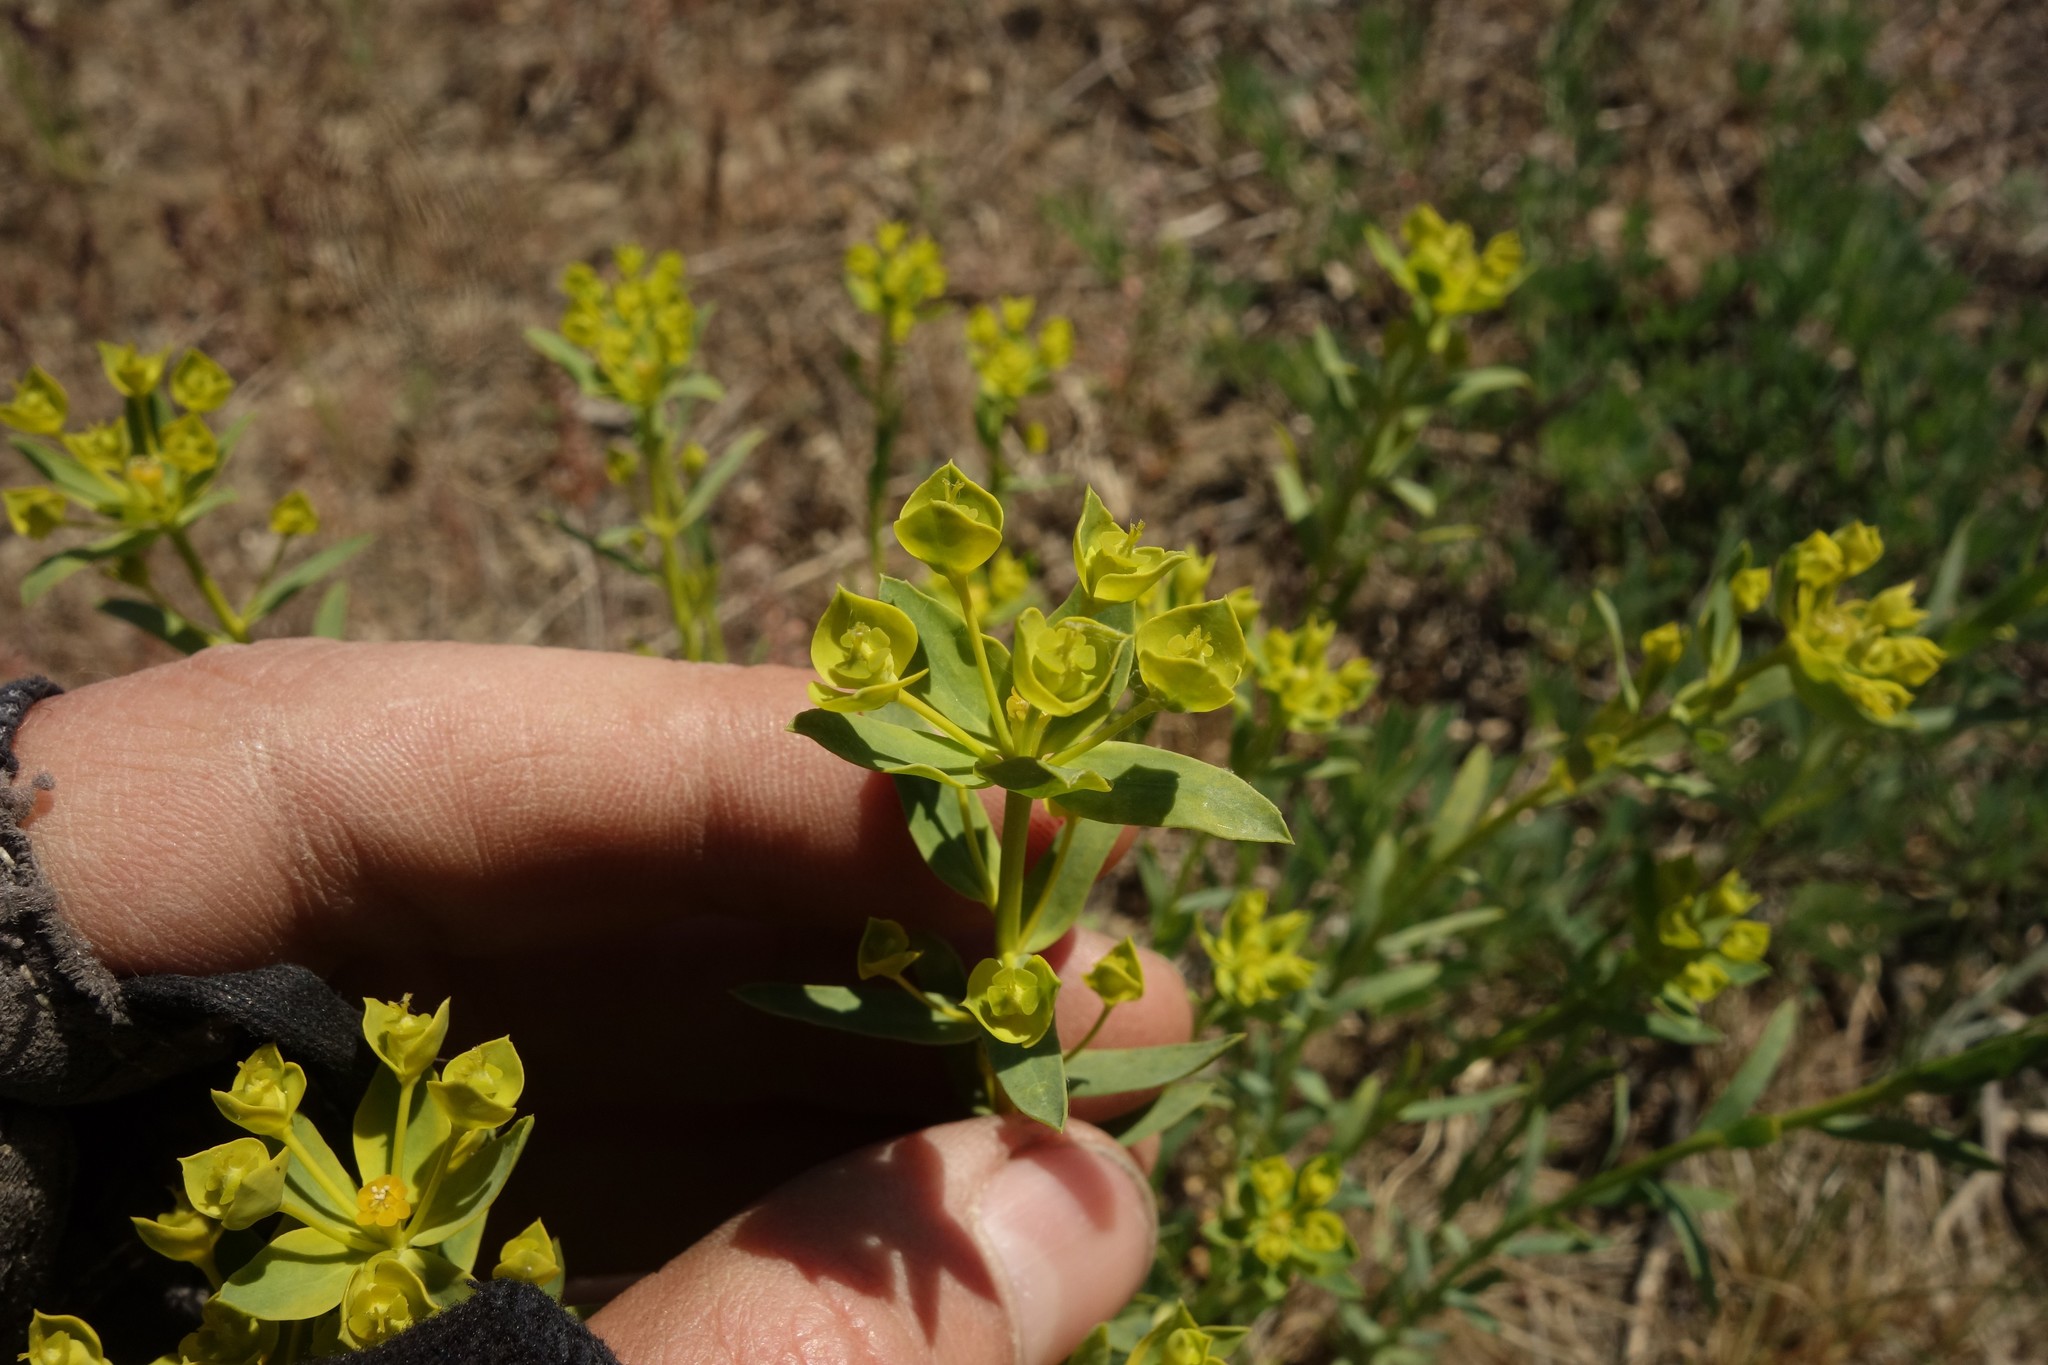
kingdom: Plantae
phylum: Tracheophyta
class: Magnoliopsida
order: Malpighiales
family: Euphorbiaceae
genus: Euphorbia
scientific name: Euphorbia seguieriana
